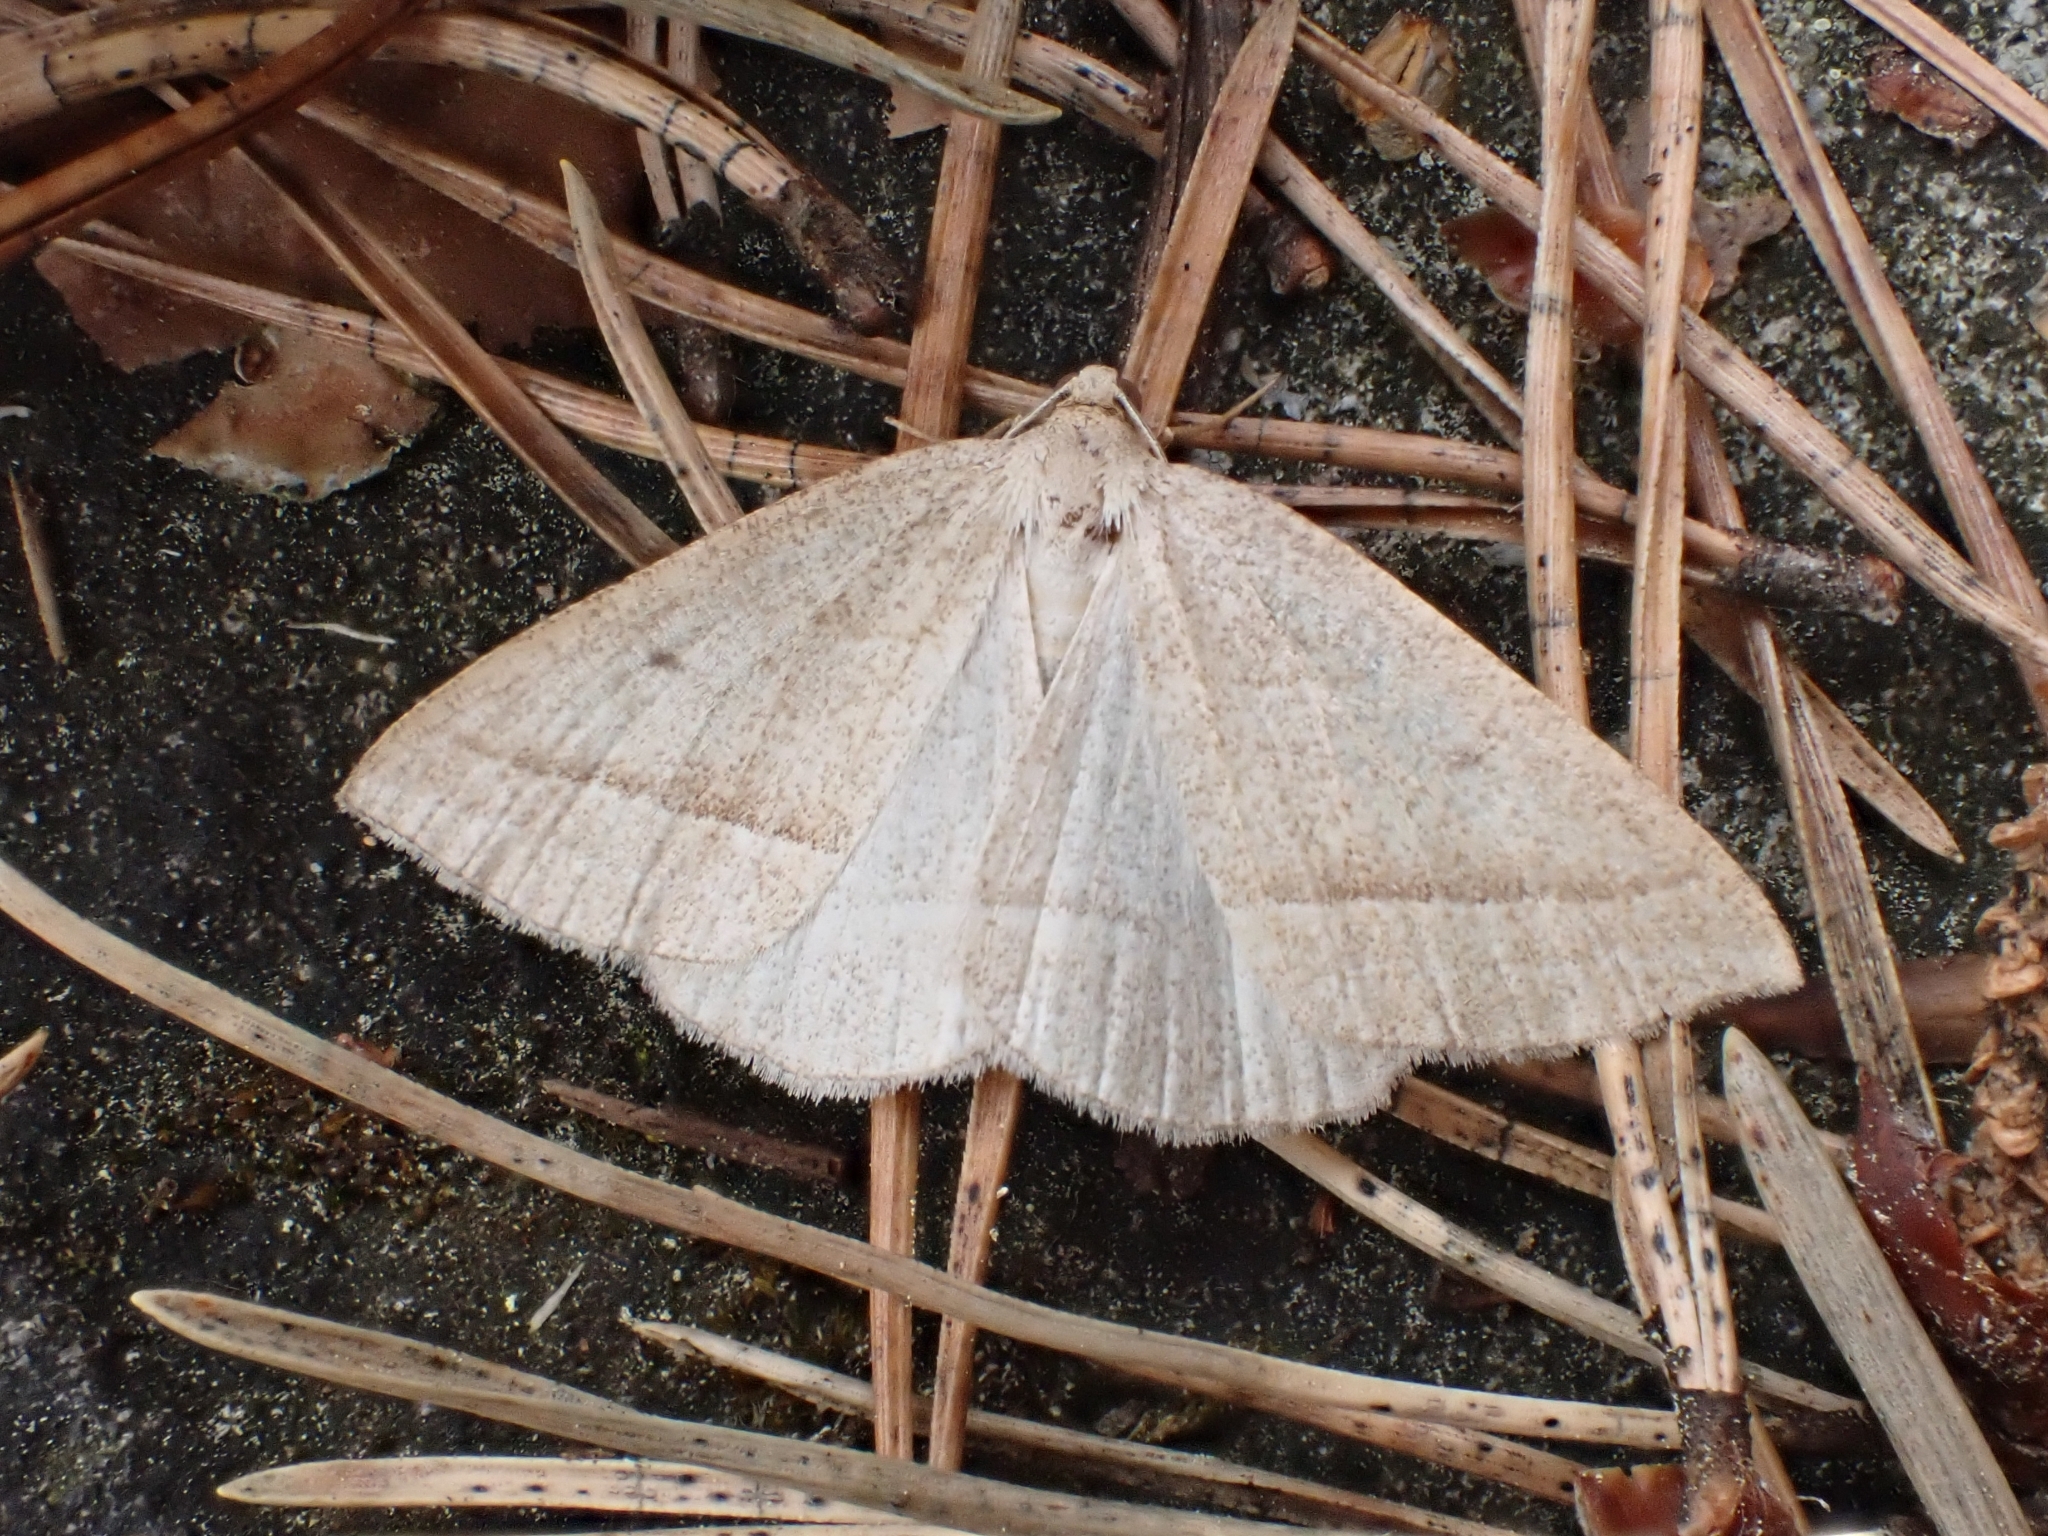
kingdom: Animalia
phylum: Arthropoda
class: Insecta
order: Lepidoptera
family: Pterophoridae
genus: Pterophorus
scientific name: Pterophorus Petrophora chlorosata
